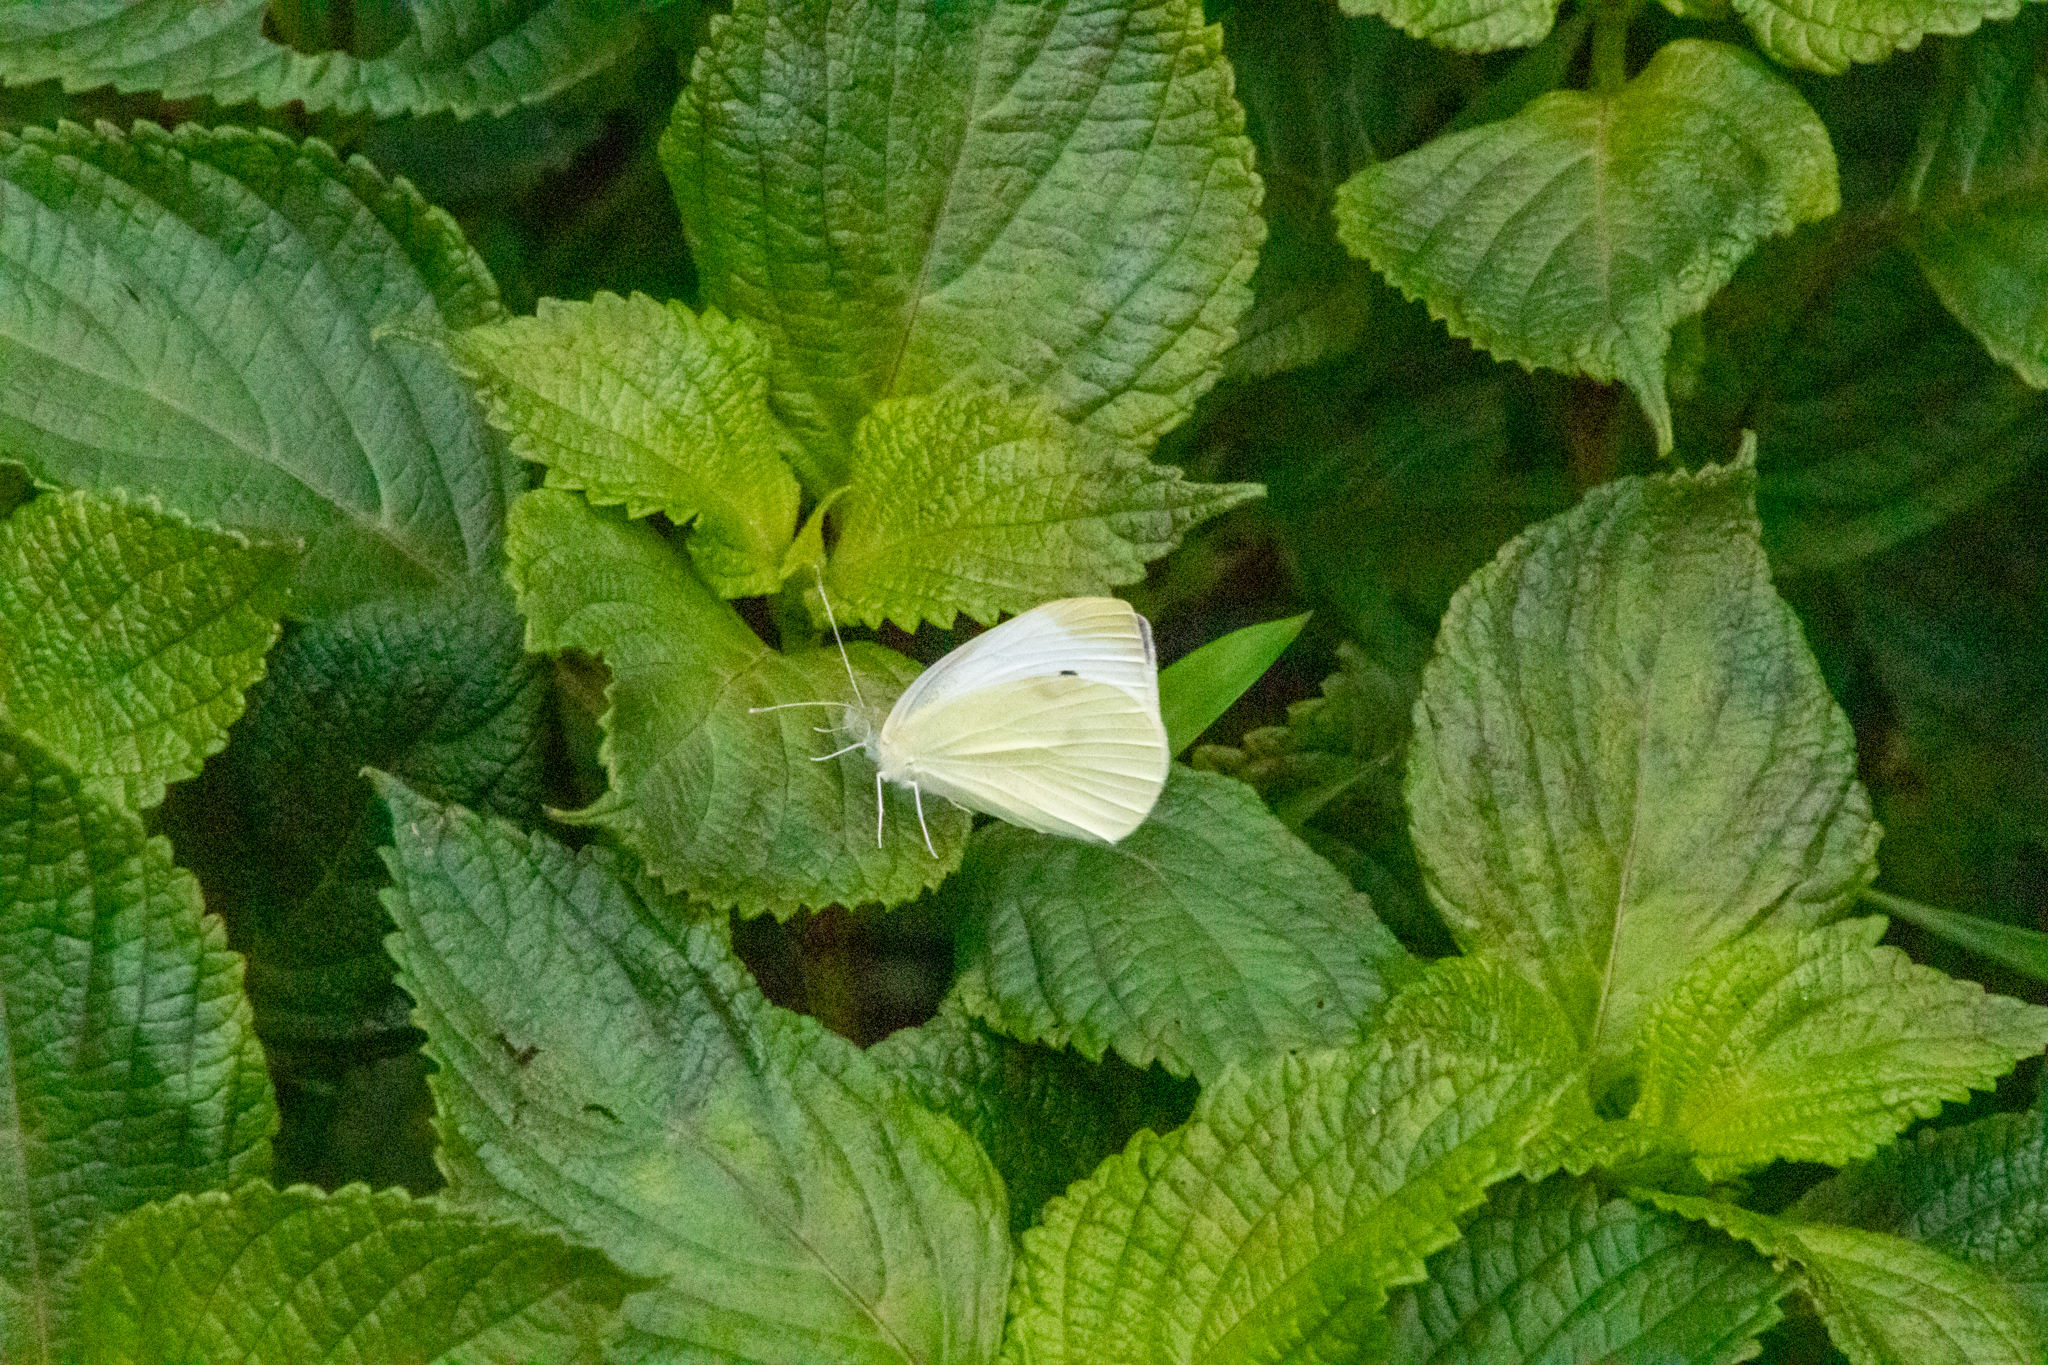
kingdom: Animalia
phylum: Arthropoda
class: Insecta
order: Lepidoptera
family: Pieridae
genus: Pieris
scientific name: Pieris rapae
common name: Small white
